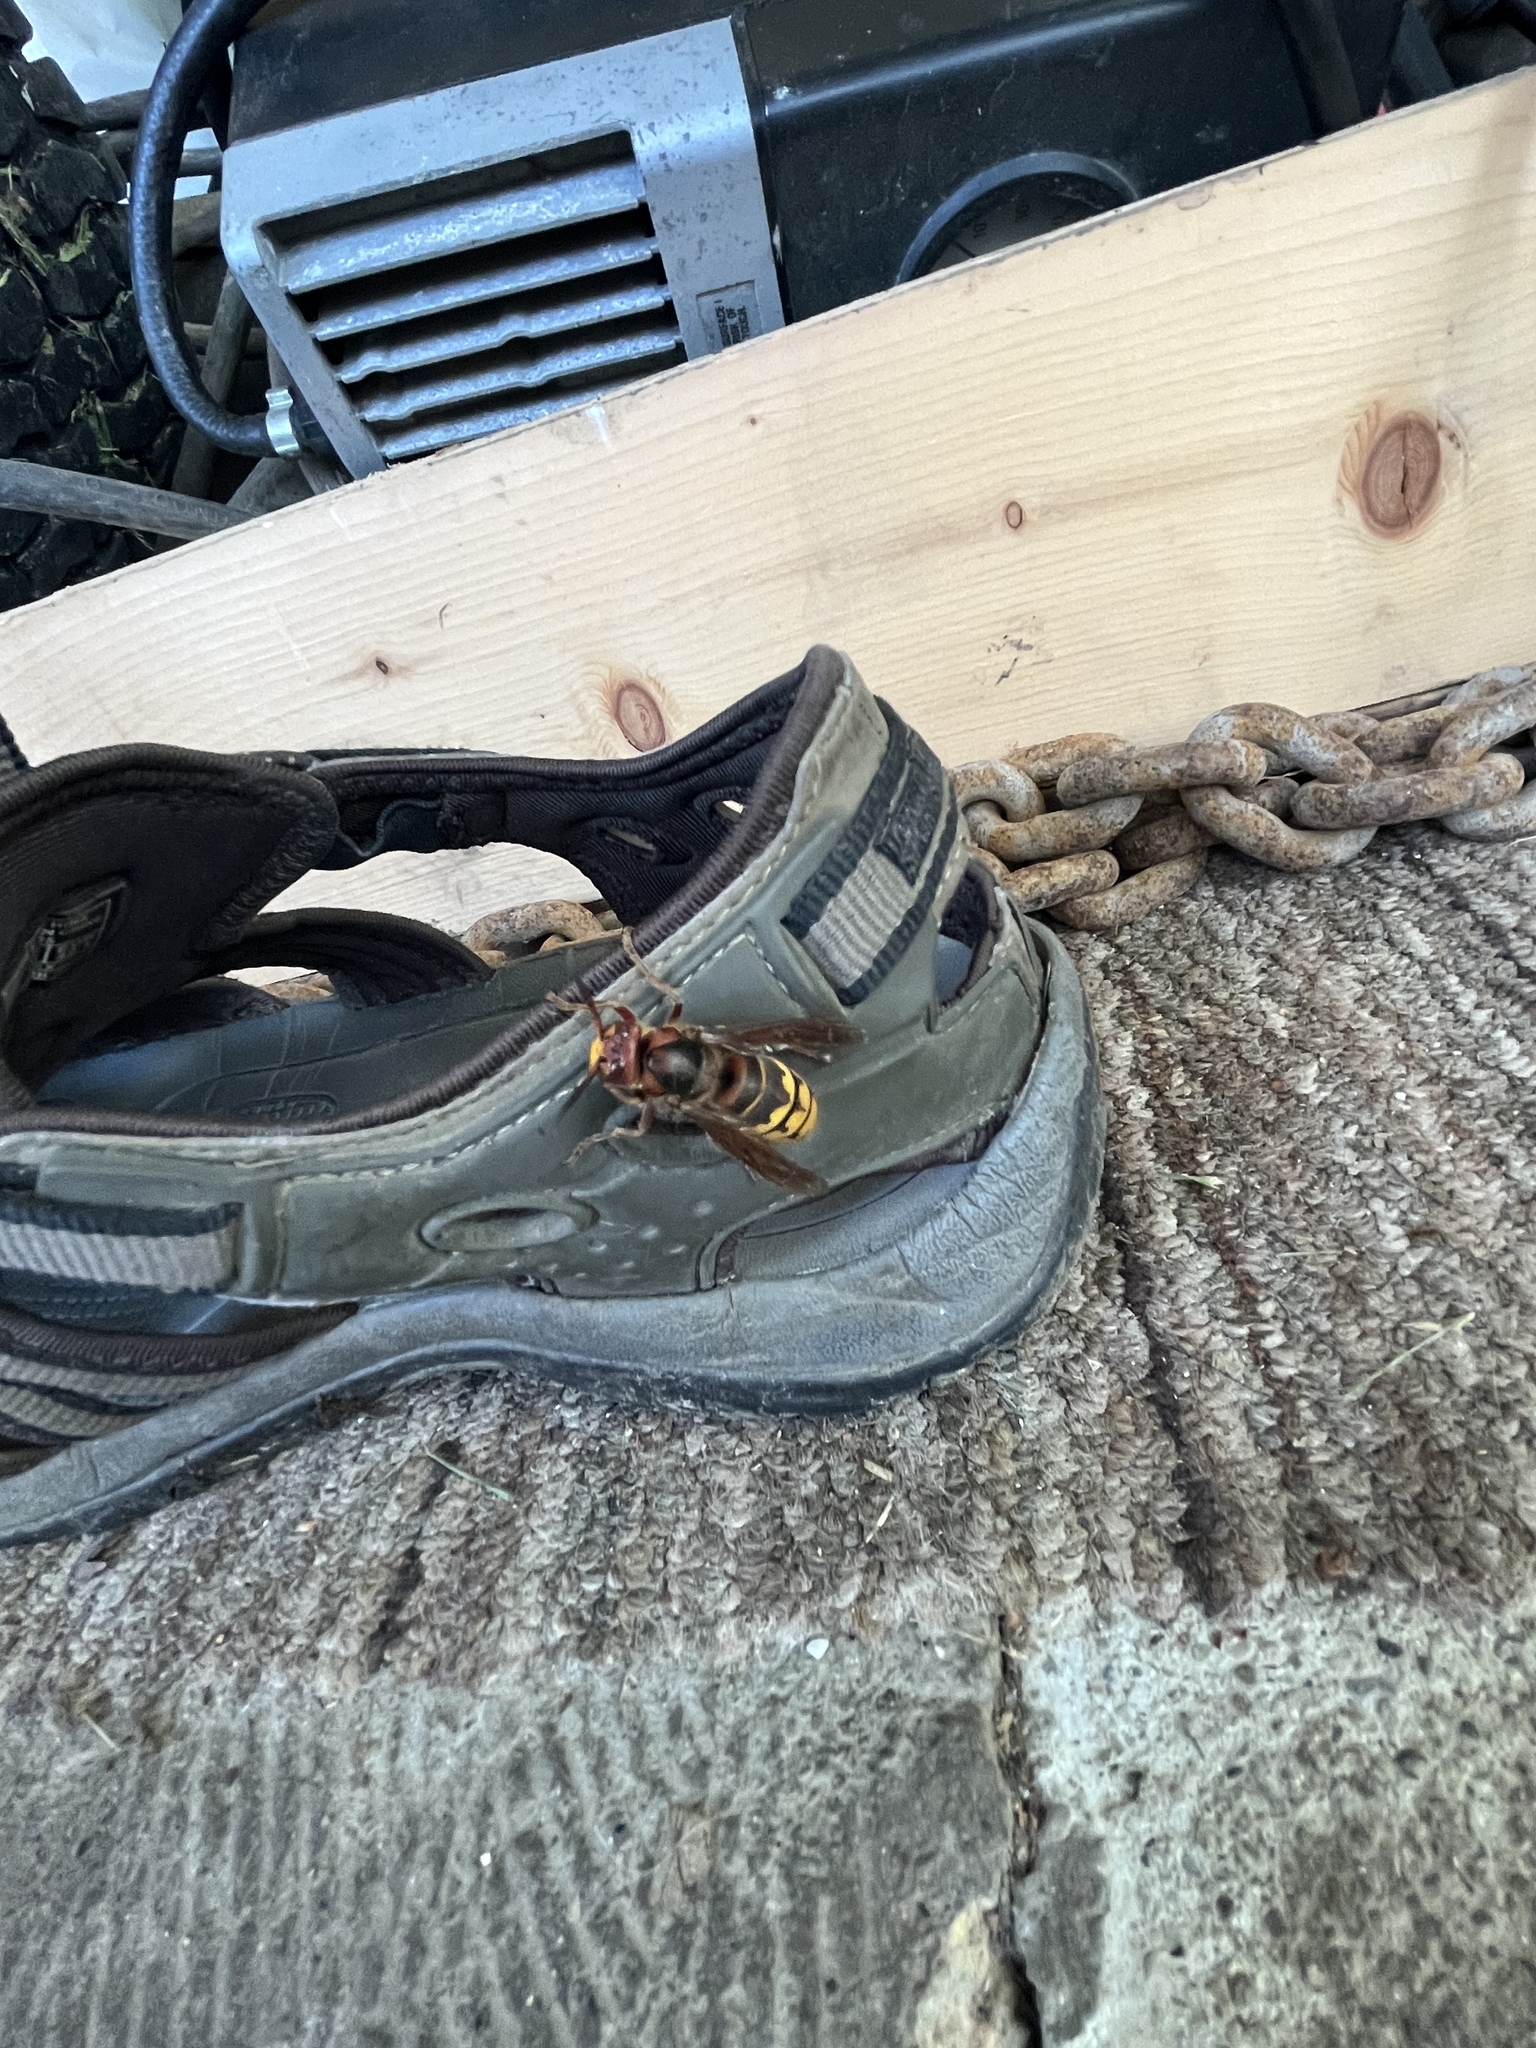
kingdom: Animalia
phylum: Arthropoda
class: Insecta
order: Hymenoptera
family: Vespidae
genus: Vespa
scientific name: Vespa crabro
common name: Hornet
